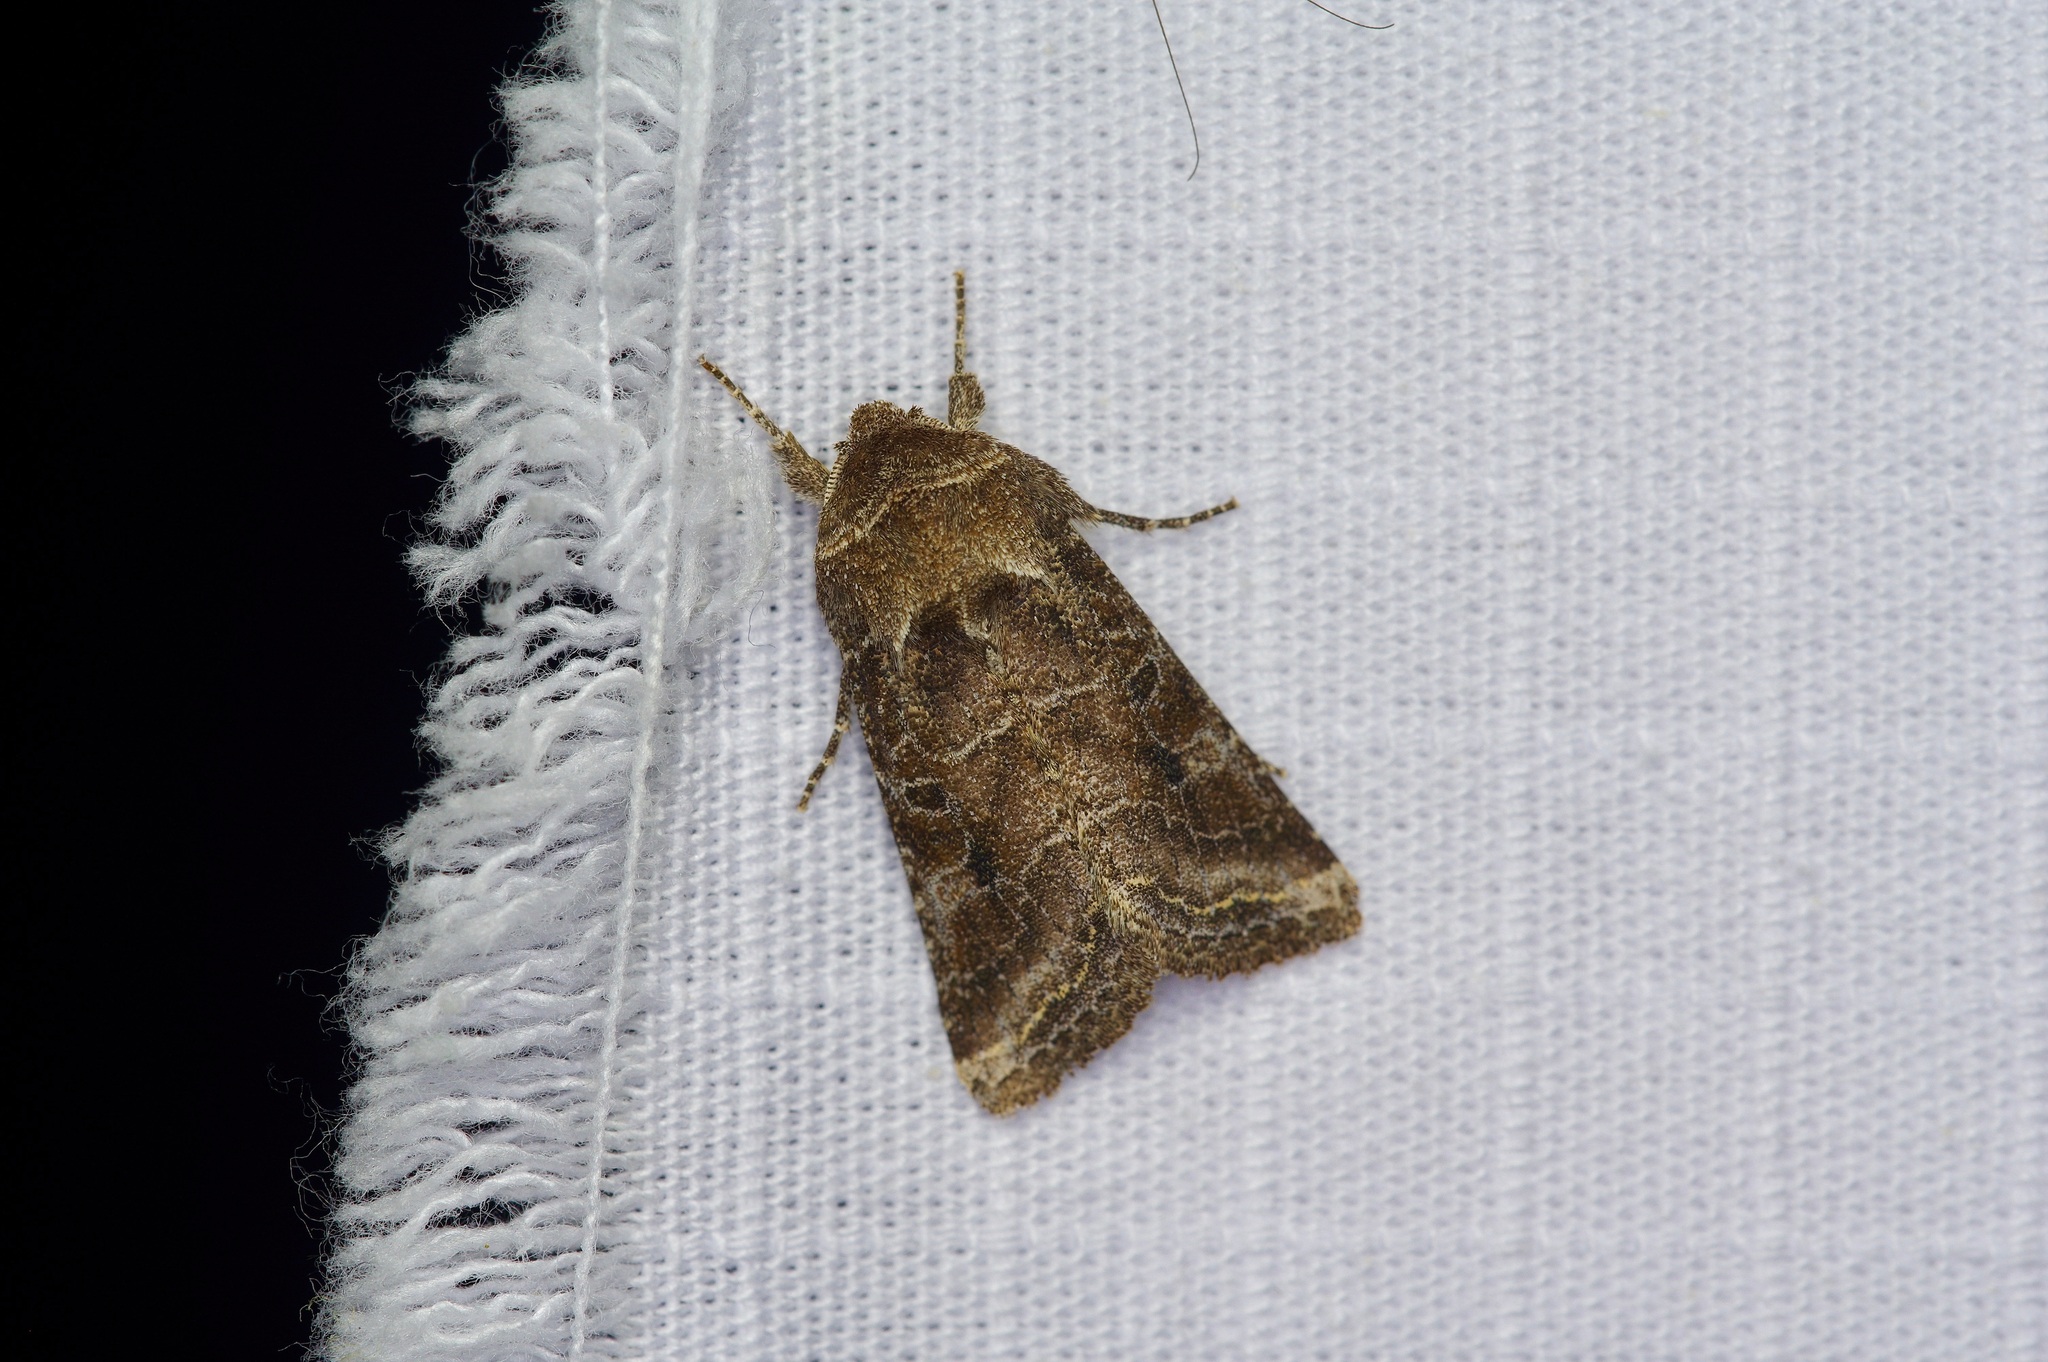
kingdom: Animalia
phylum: Arthropoda
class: Insecta
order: Lepidoptera
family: Noctuidae
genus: Lacinipolia
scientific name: Lacinipolia erecta
